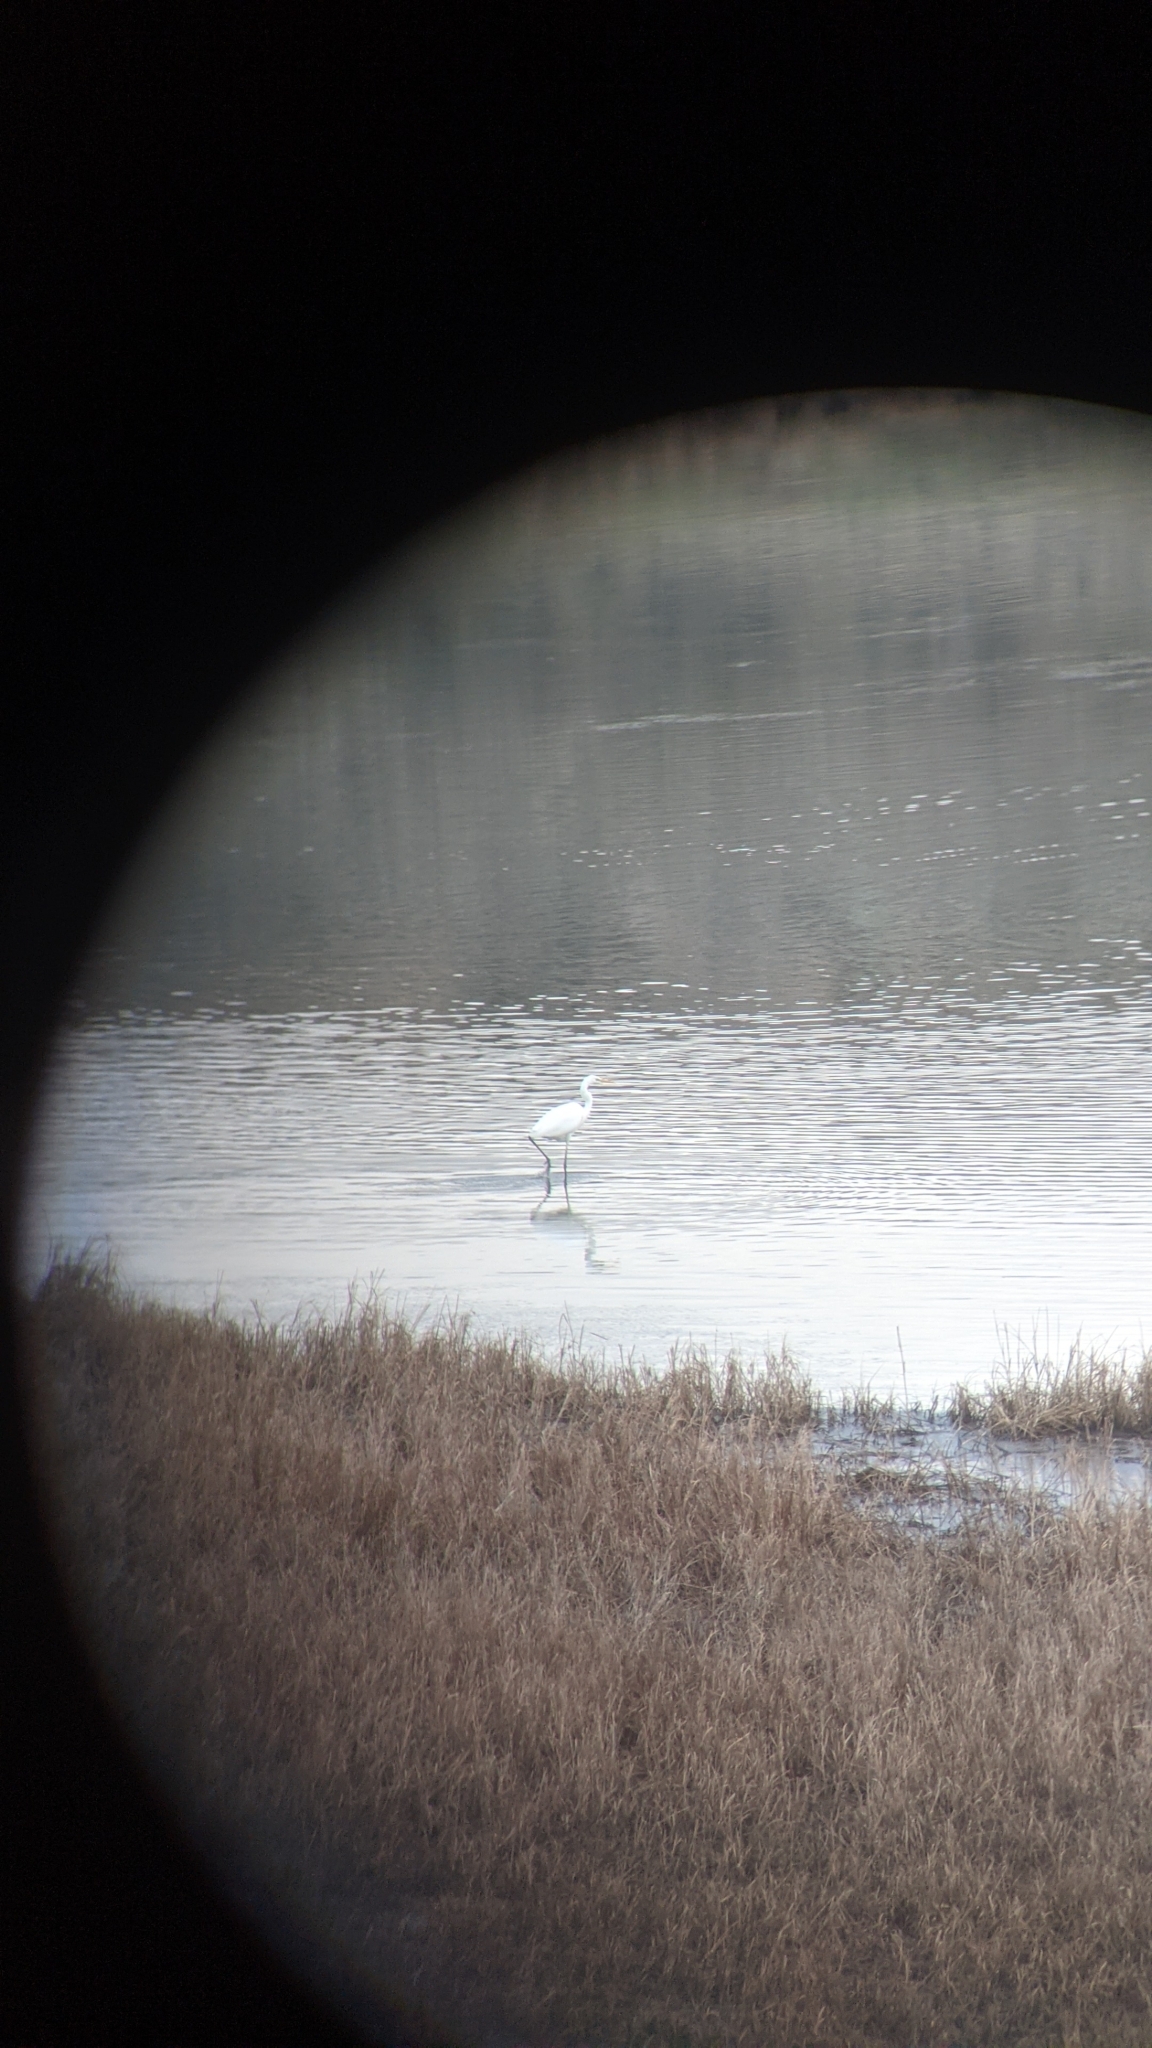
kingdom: Animalia
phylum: Chordata
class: Aves
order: Pelecaniformes
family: Ardeidae
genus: Ardea
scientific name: Ardea alba
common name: Great egret
